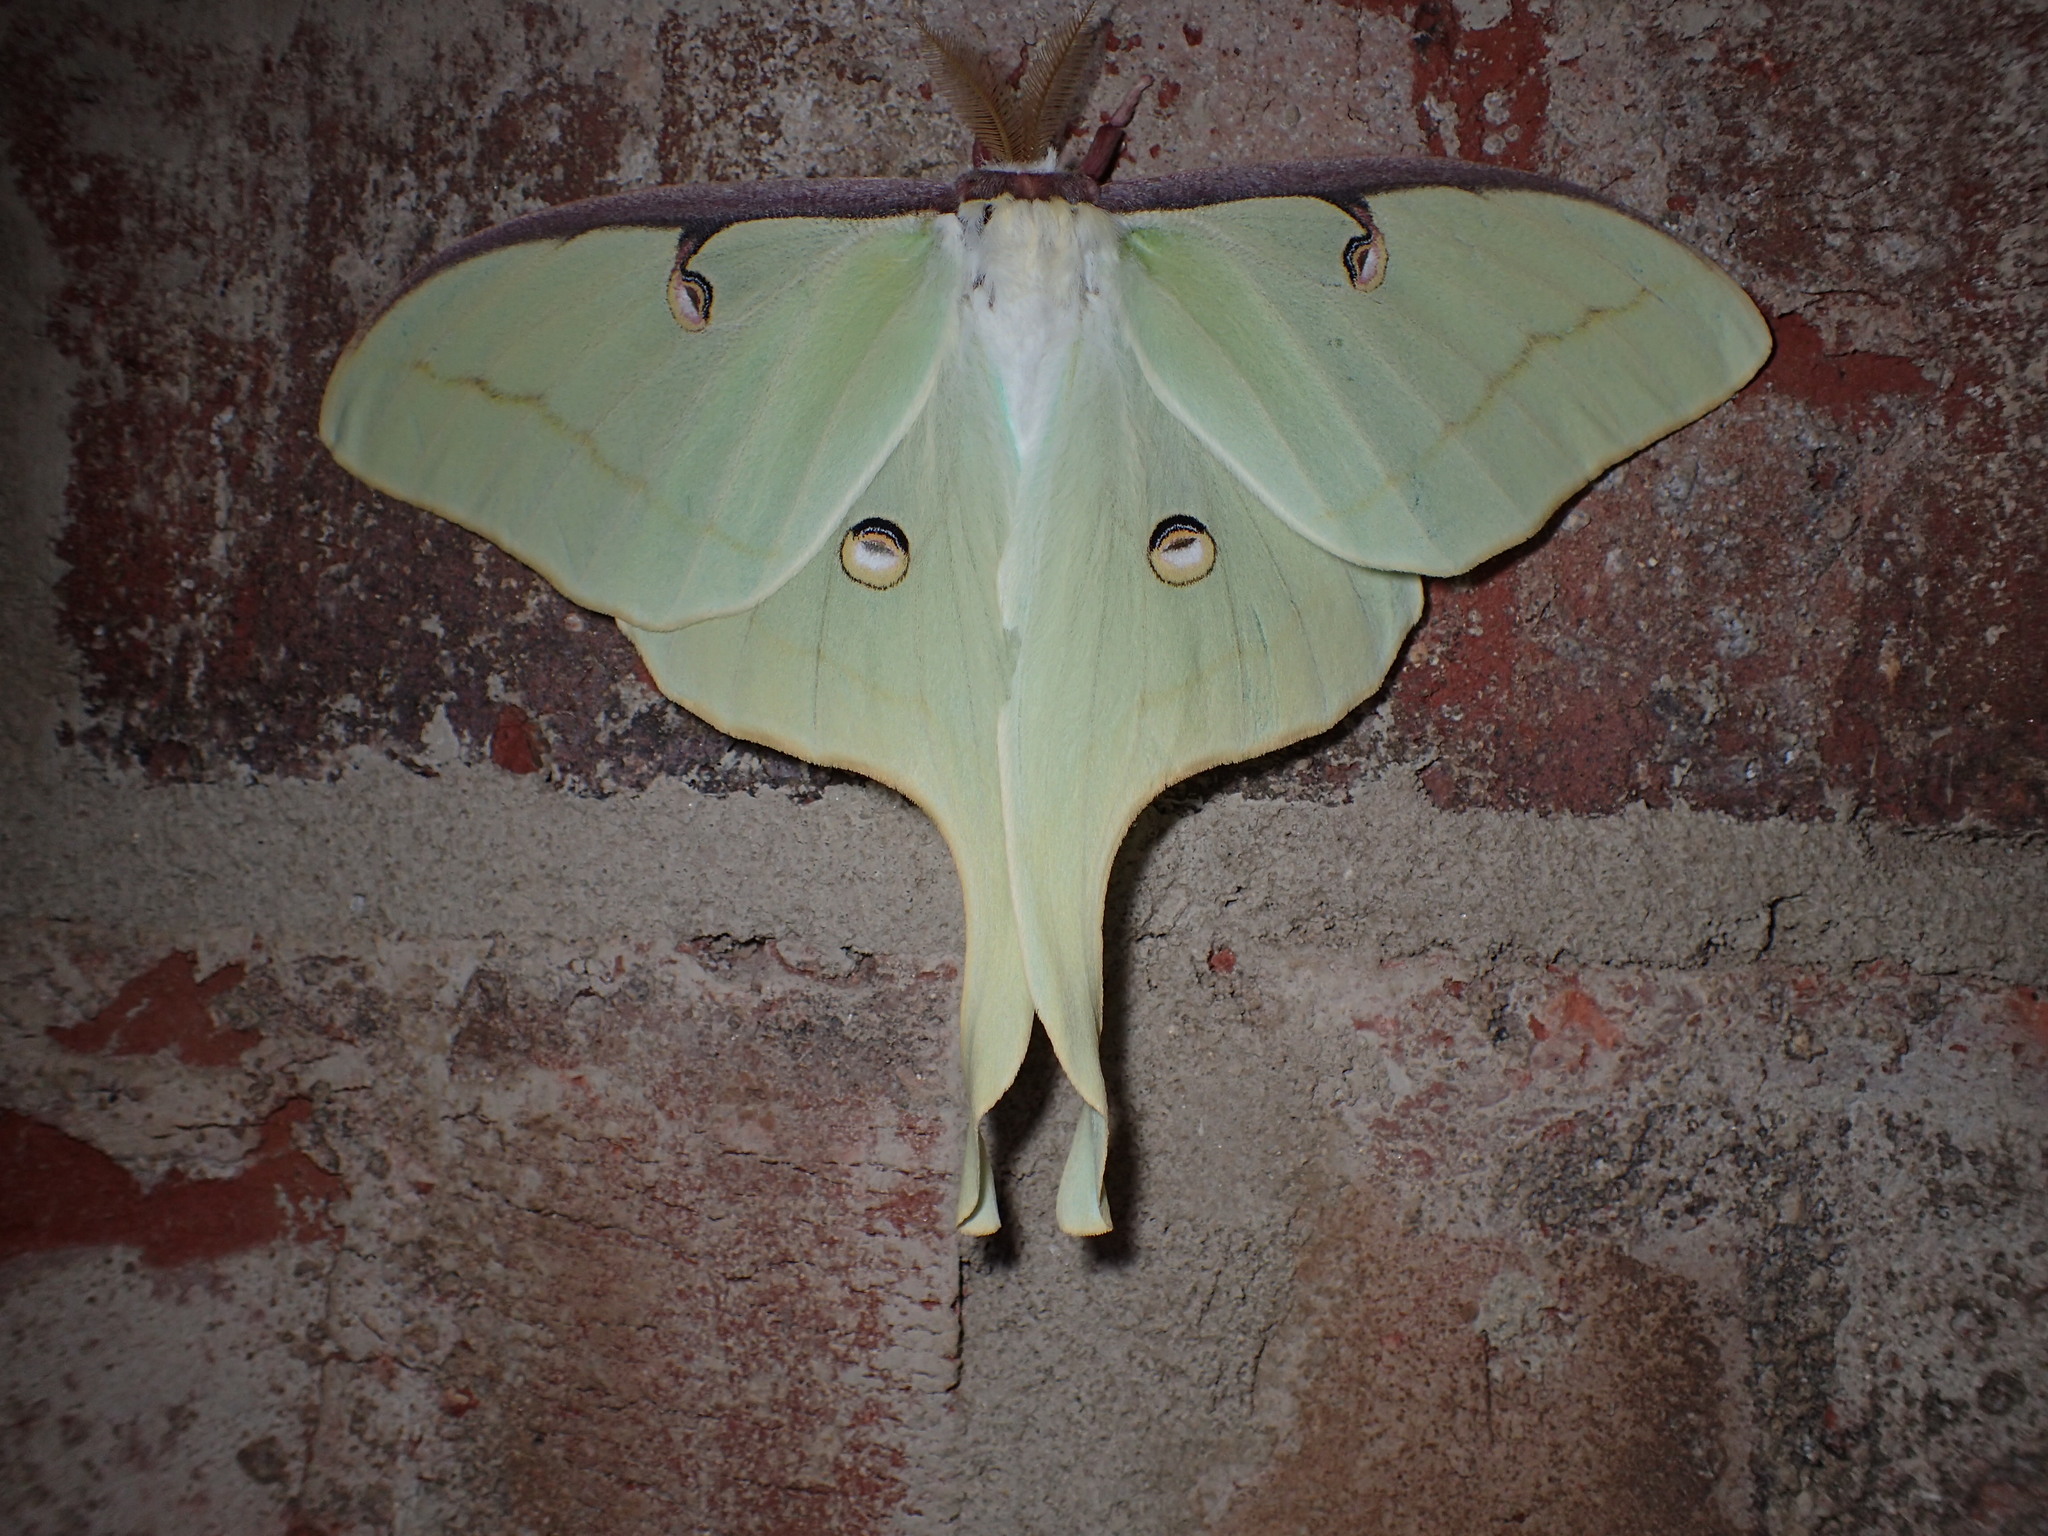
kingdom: Animalia
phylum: Arthropoda
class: Insecta
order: Lepidoptera
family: Saturniidae
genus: Actias
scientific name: Actias luna
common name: Luna moth
